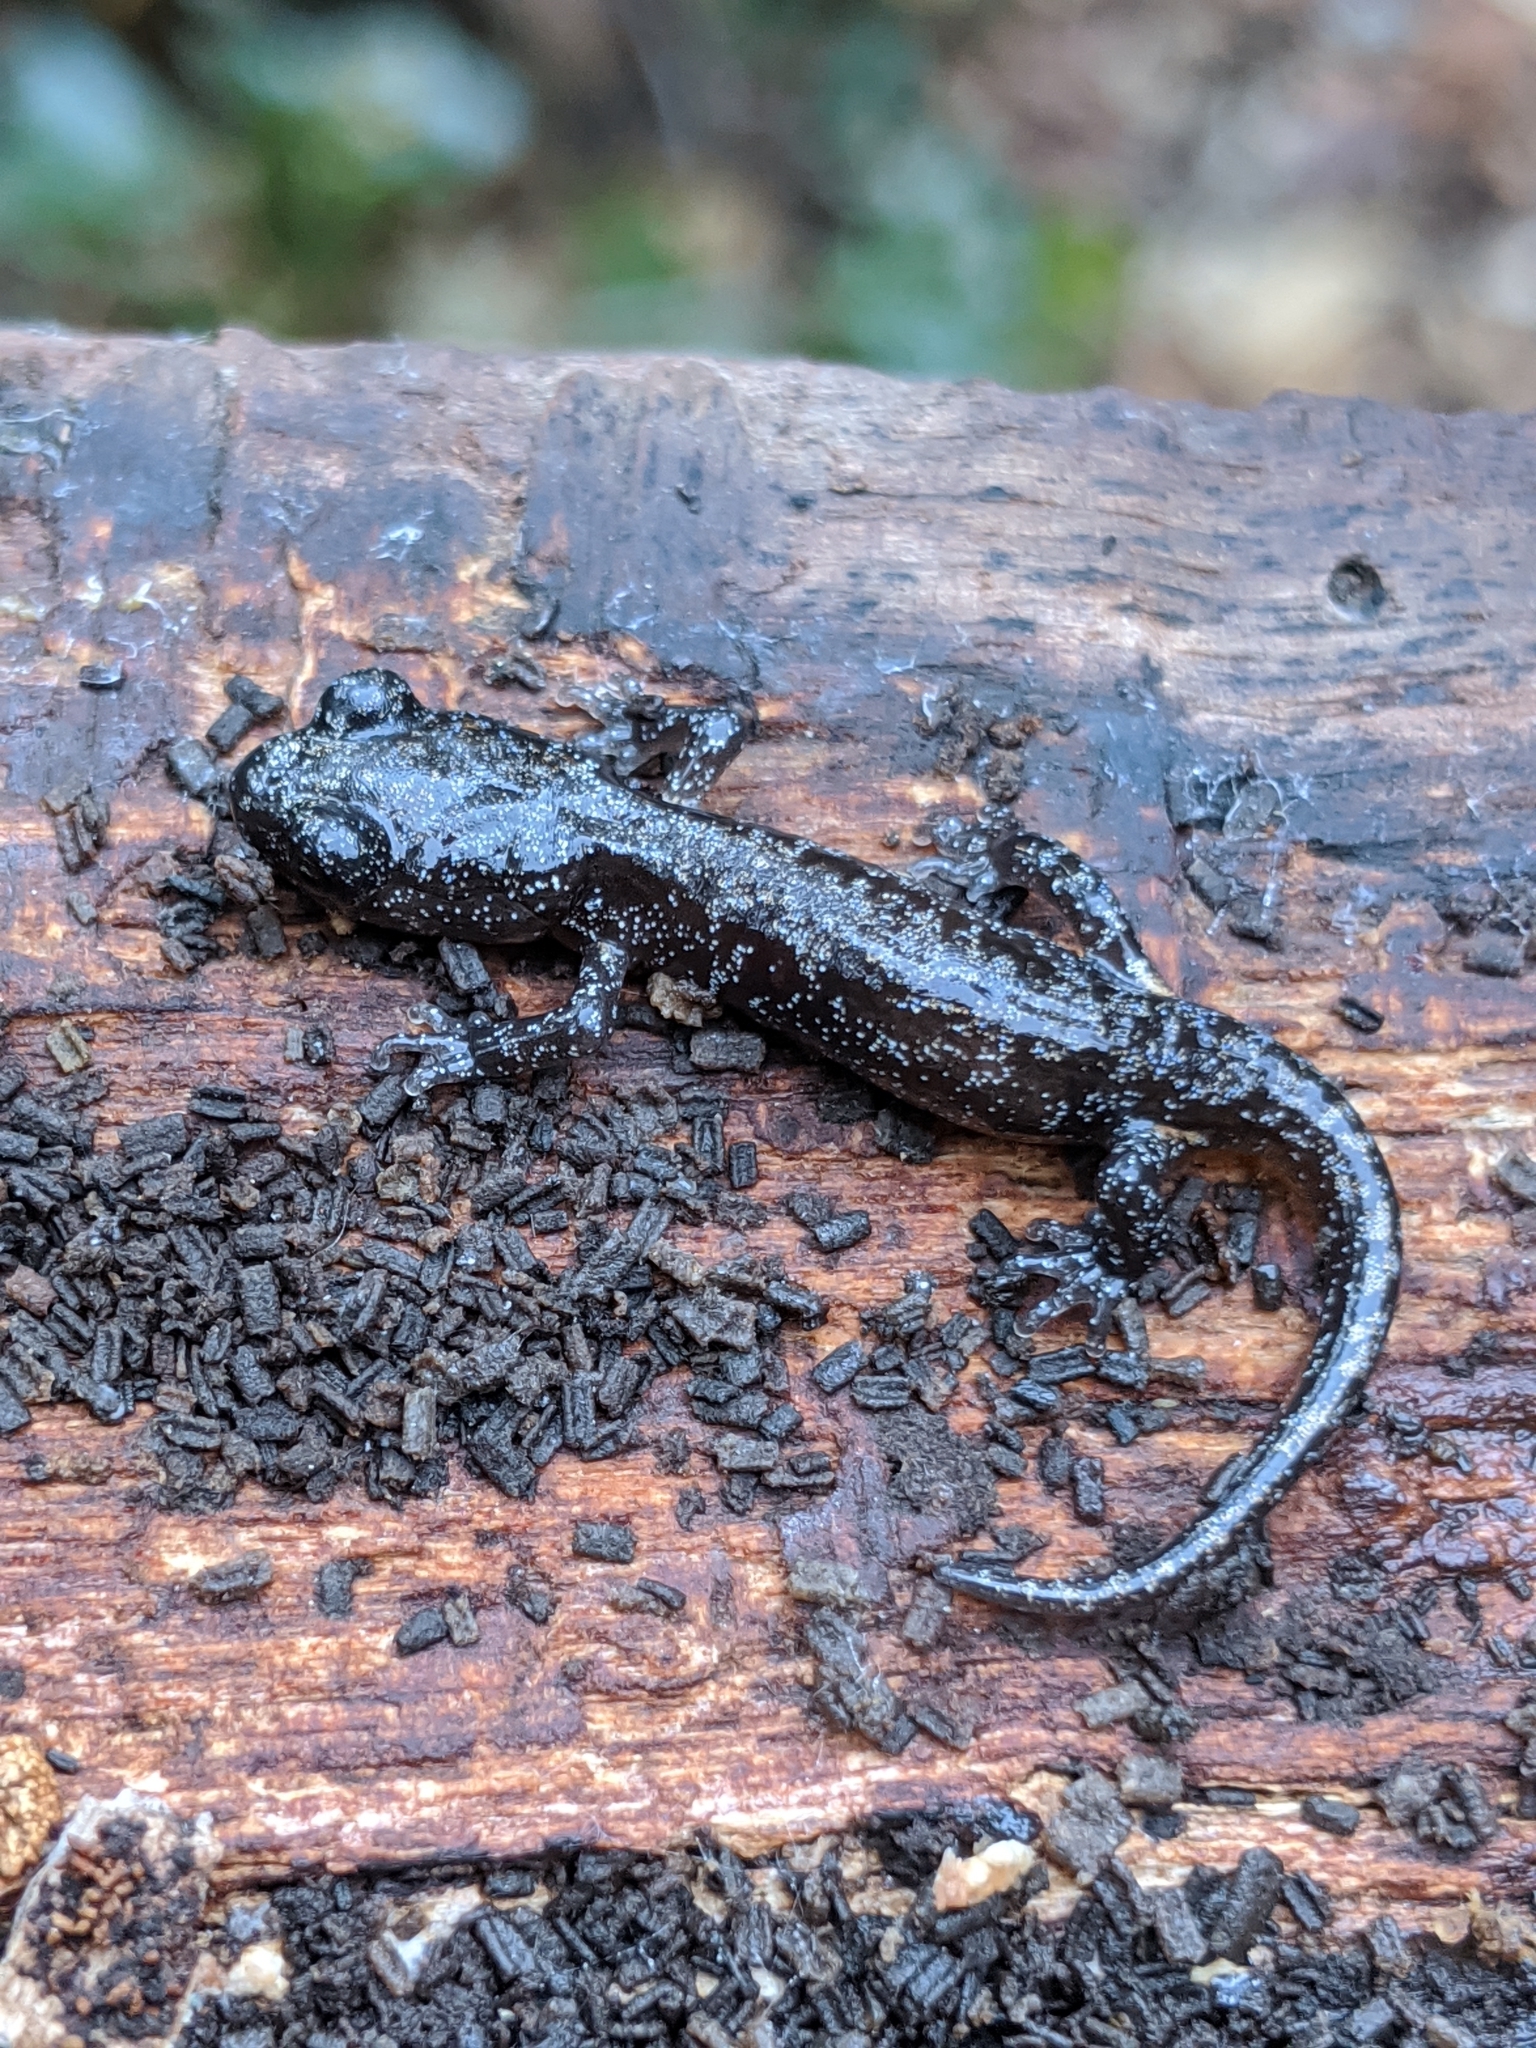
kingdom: Animalia
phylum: Chordata
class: Amphibia
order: Caudata
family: Plethodontidae
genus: Aneides
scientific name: Aneides lugubris
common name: Arboreal salamander
